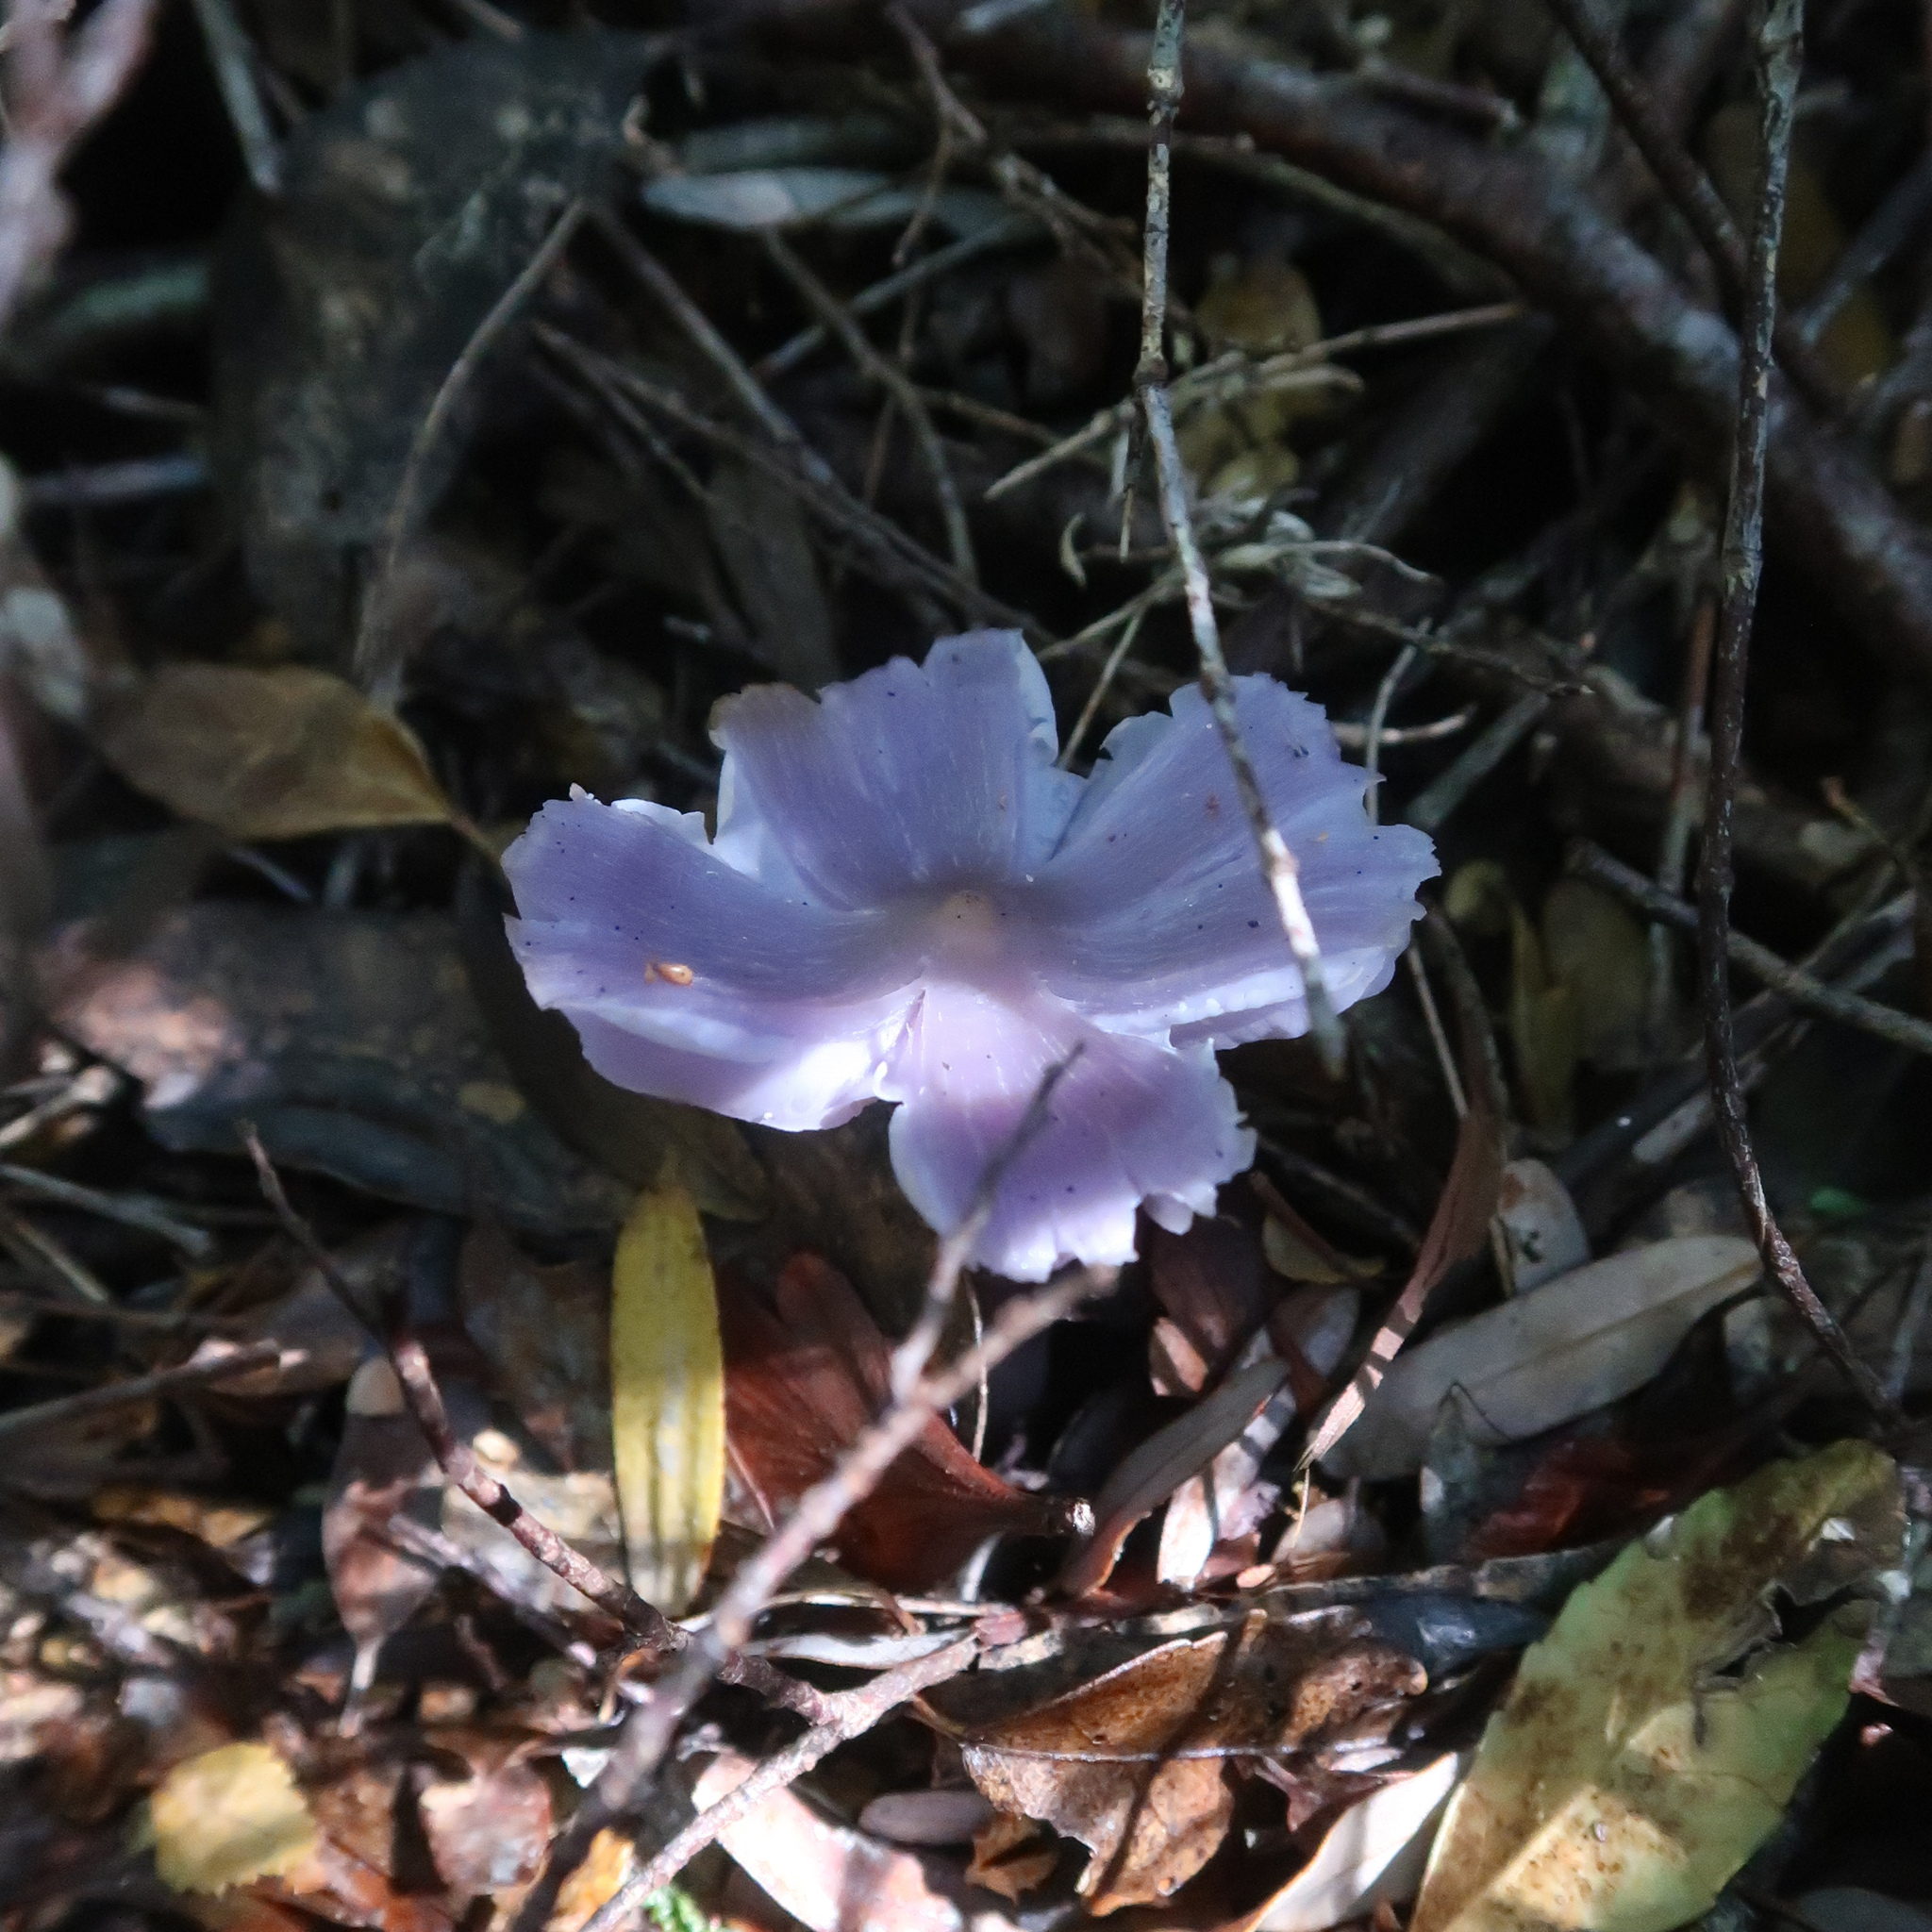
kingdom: Fungi
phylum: Basidiomycota
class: Agaricomycetes
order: Agaricales
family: Hygrophoraceae
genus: Porpolomopsis
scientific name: Porpolomopsis lewelliniae
